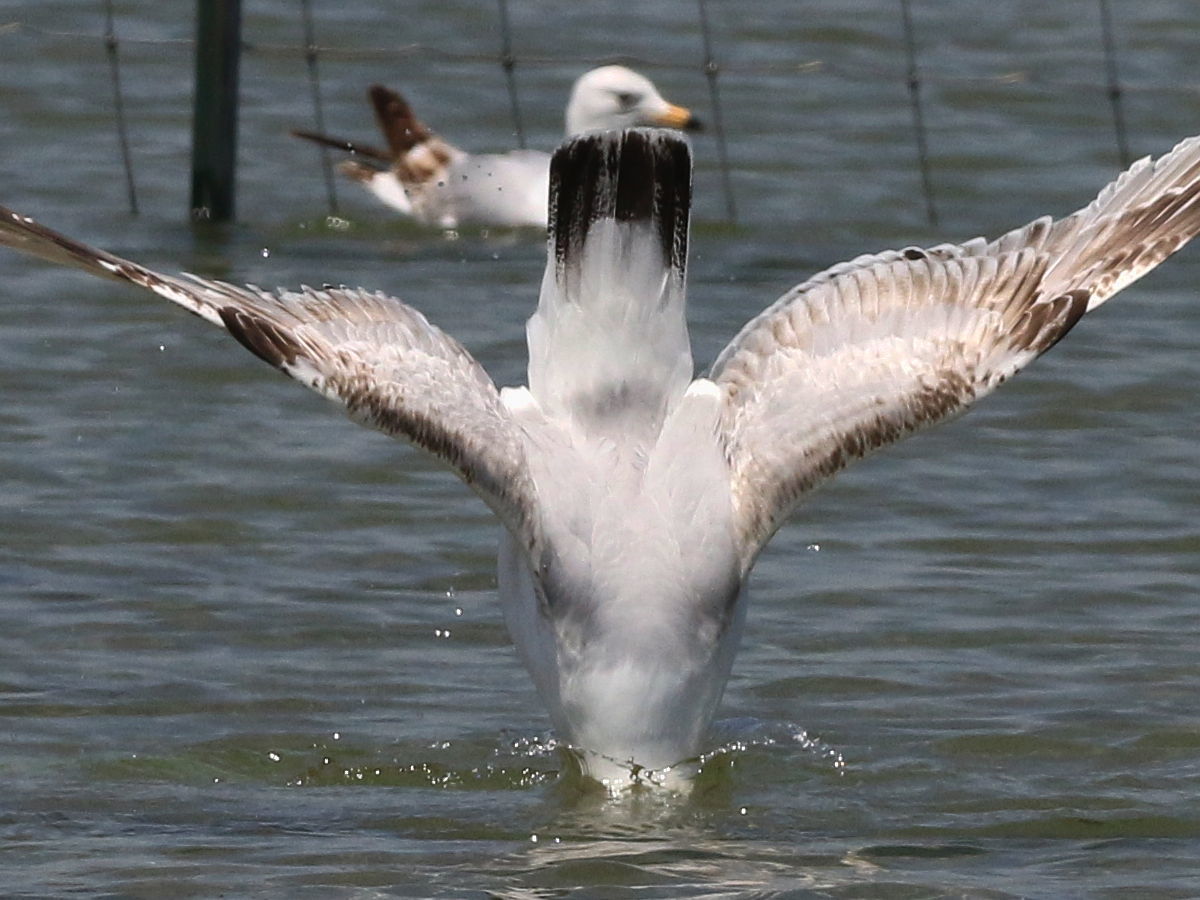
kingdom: Animalia
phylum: Chordata
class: Aves
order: Charadriiformes
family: Laridae
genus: Larus
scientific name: Larus delawarensis
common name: Ring-billed gull
